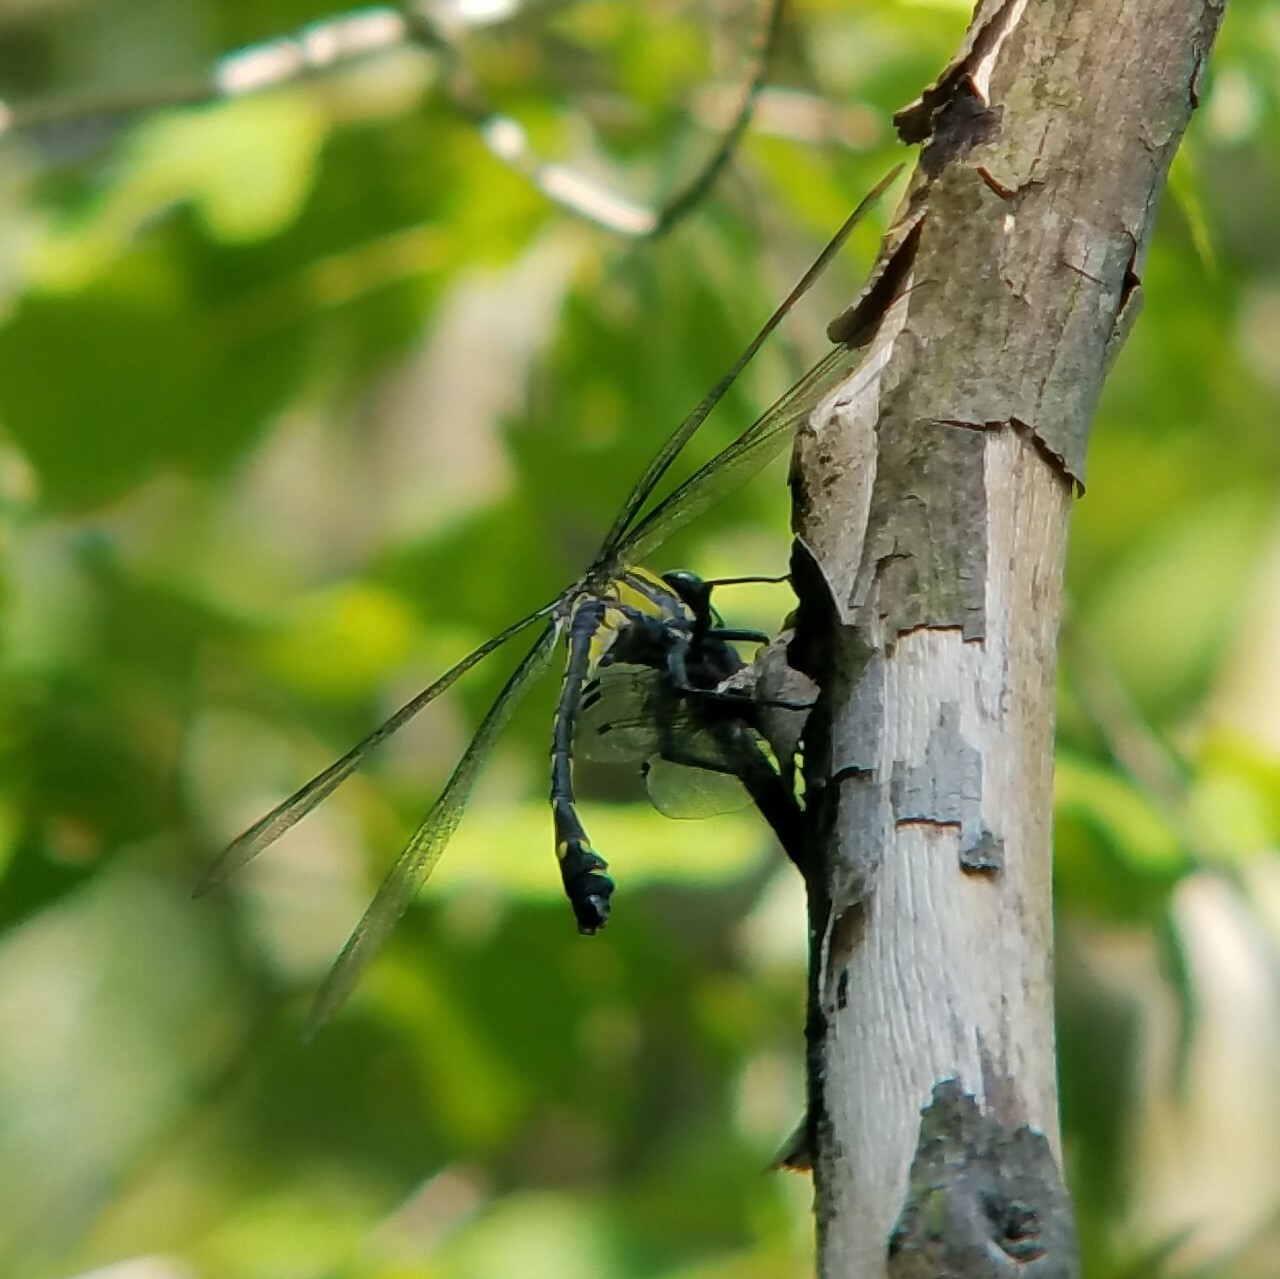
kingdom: Animalia
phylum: Arthropoda
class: Insecta
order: Odonata
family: Gomphidae
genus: Hagenius
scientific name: Hagenius brevistylus
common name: Dragonhunter
